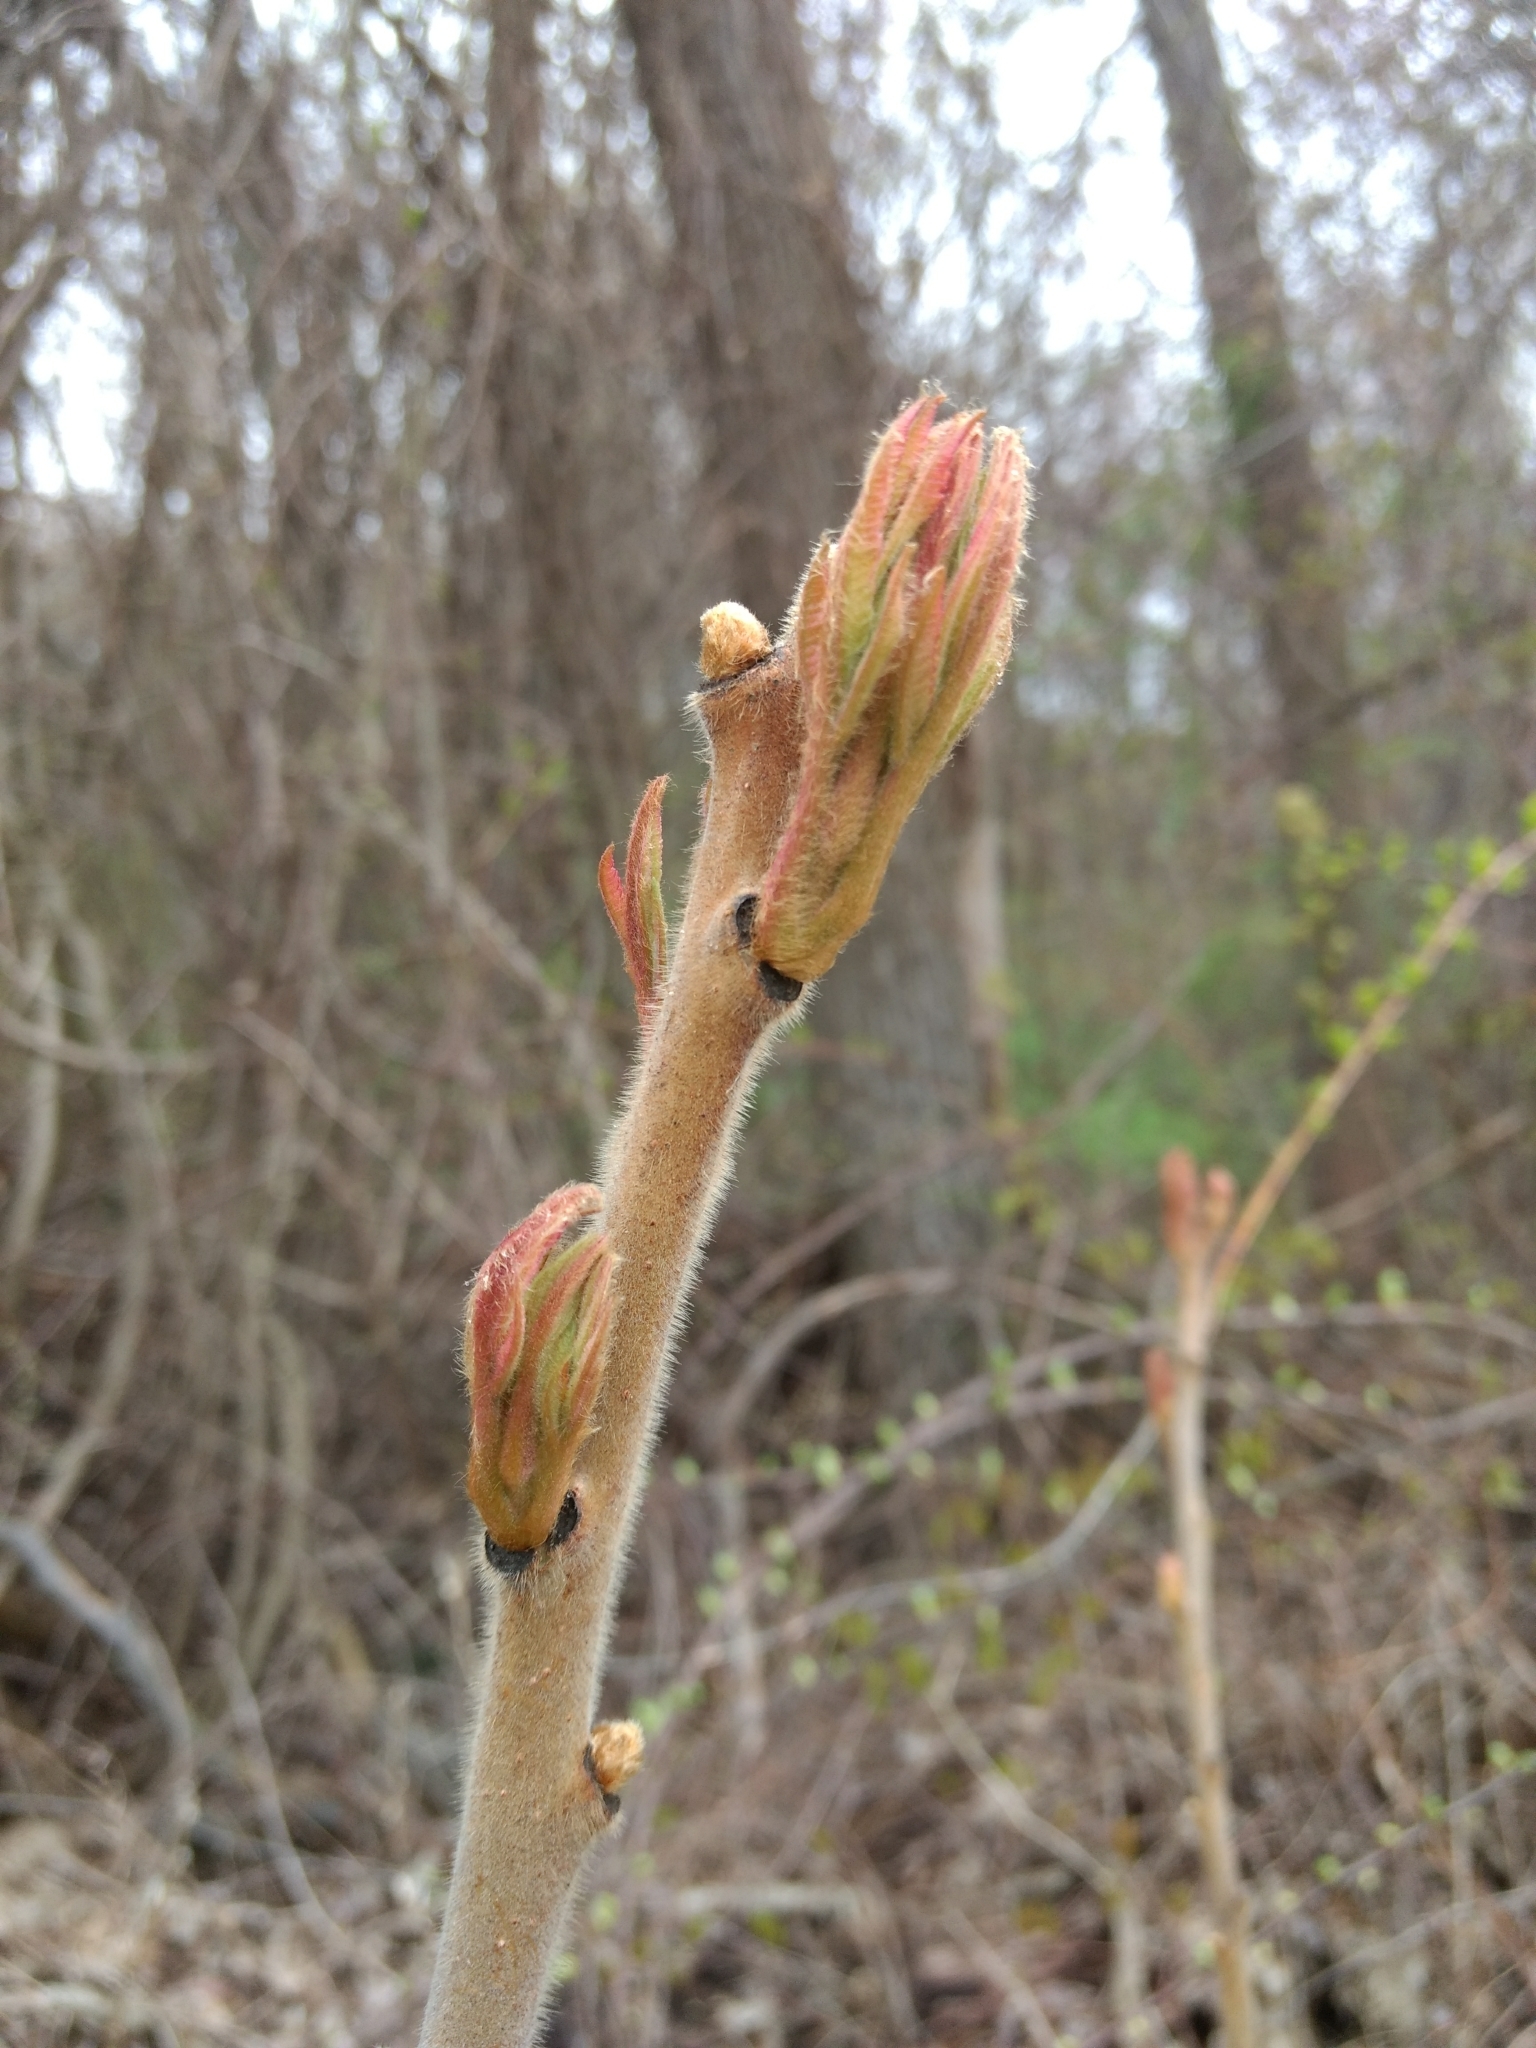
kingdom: Plantae
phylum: Tracheophyta
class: Magnoliopsida
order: Sapindales
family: Anacardiaceae
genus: Rhus
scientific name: Rhus typhina
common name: Staghorn sumac
